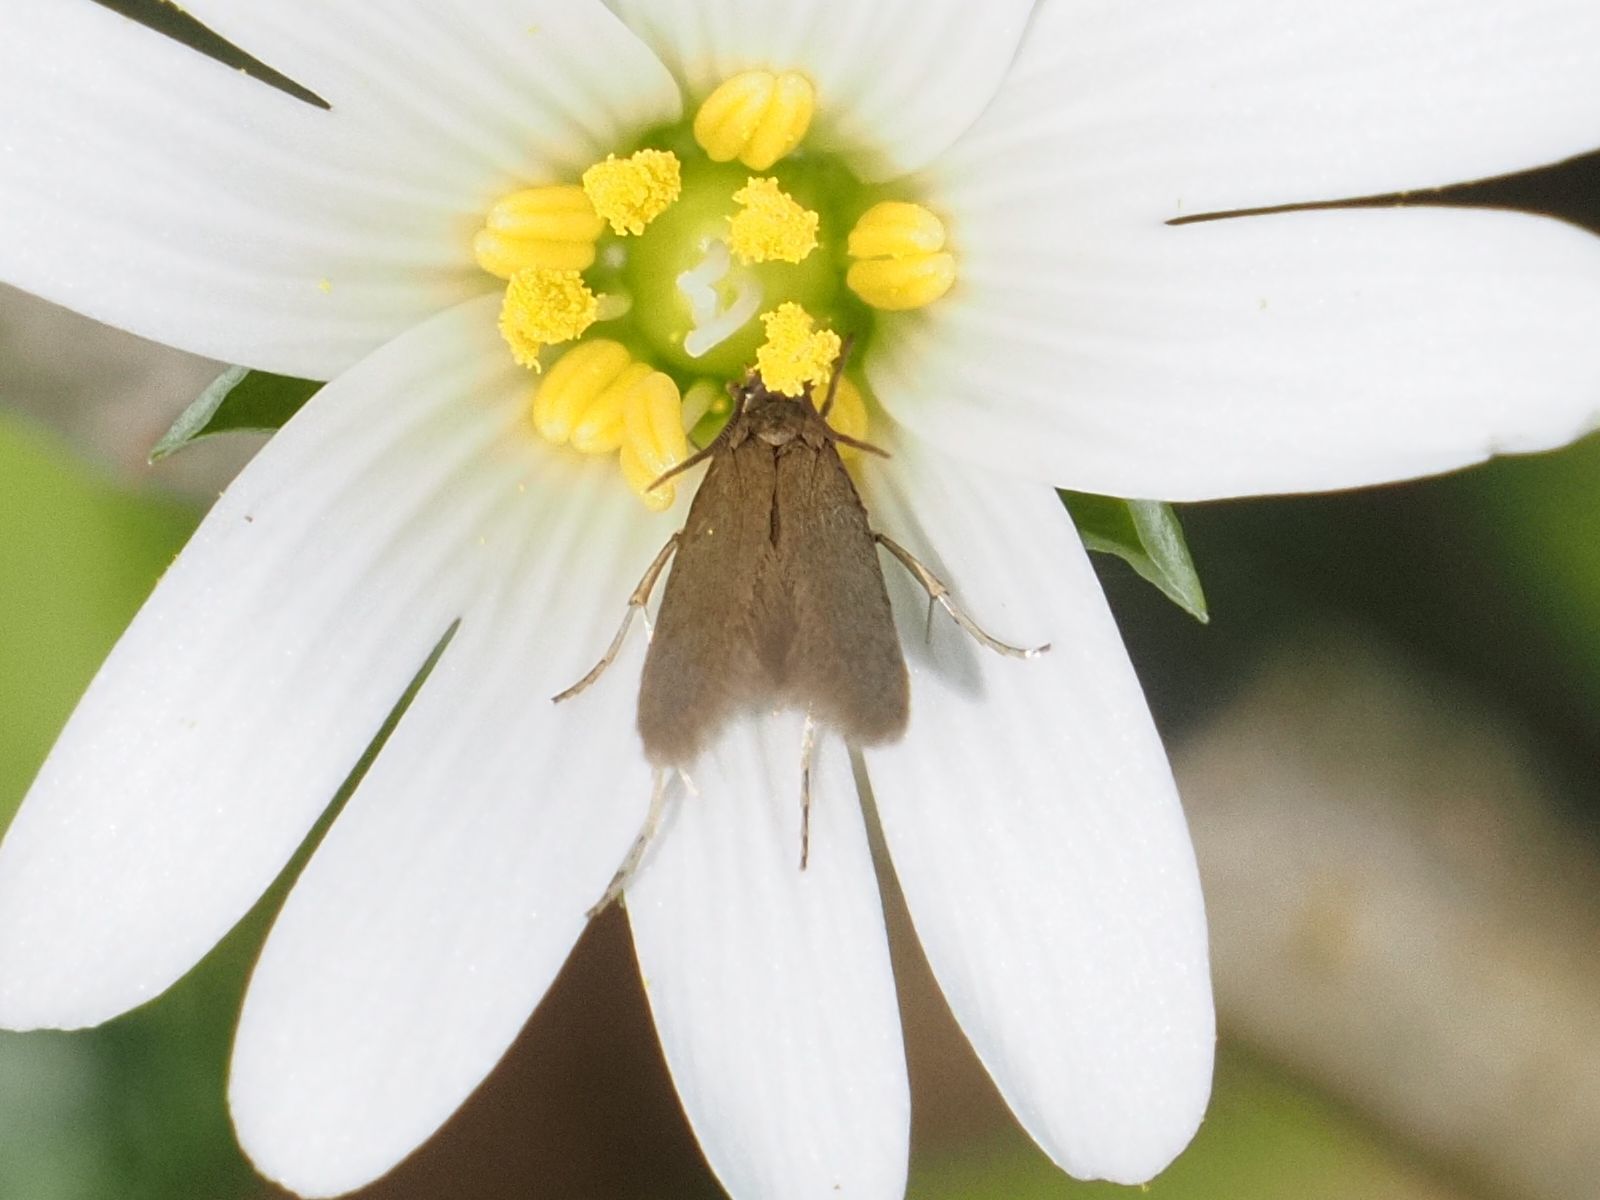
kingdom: Animalia
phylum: Arthropoda
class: Insecta
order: Lepidoptera
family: Coleophoridae
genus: Metriotes
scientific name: Metriotes lutarea
